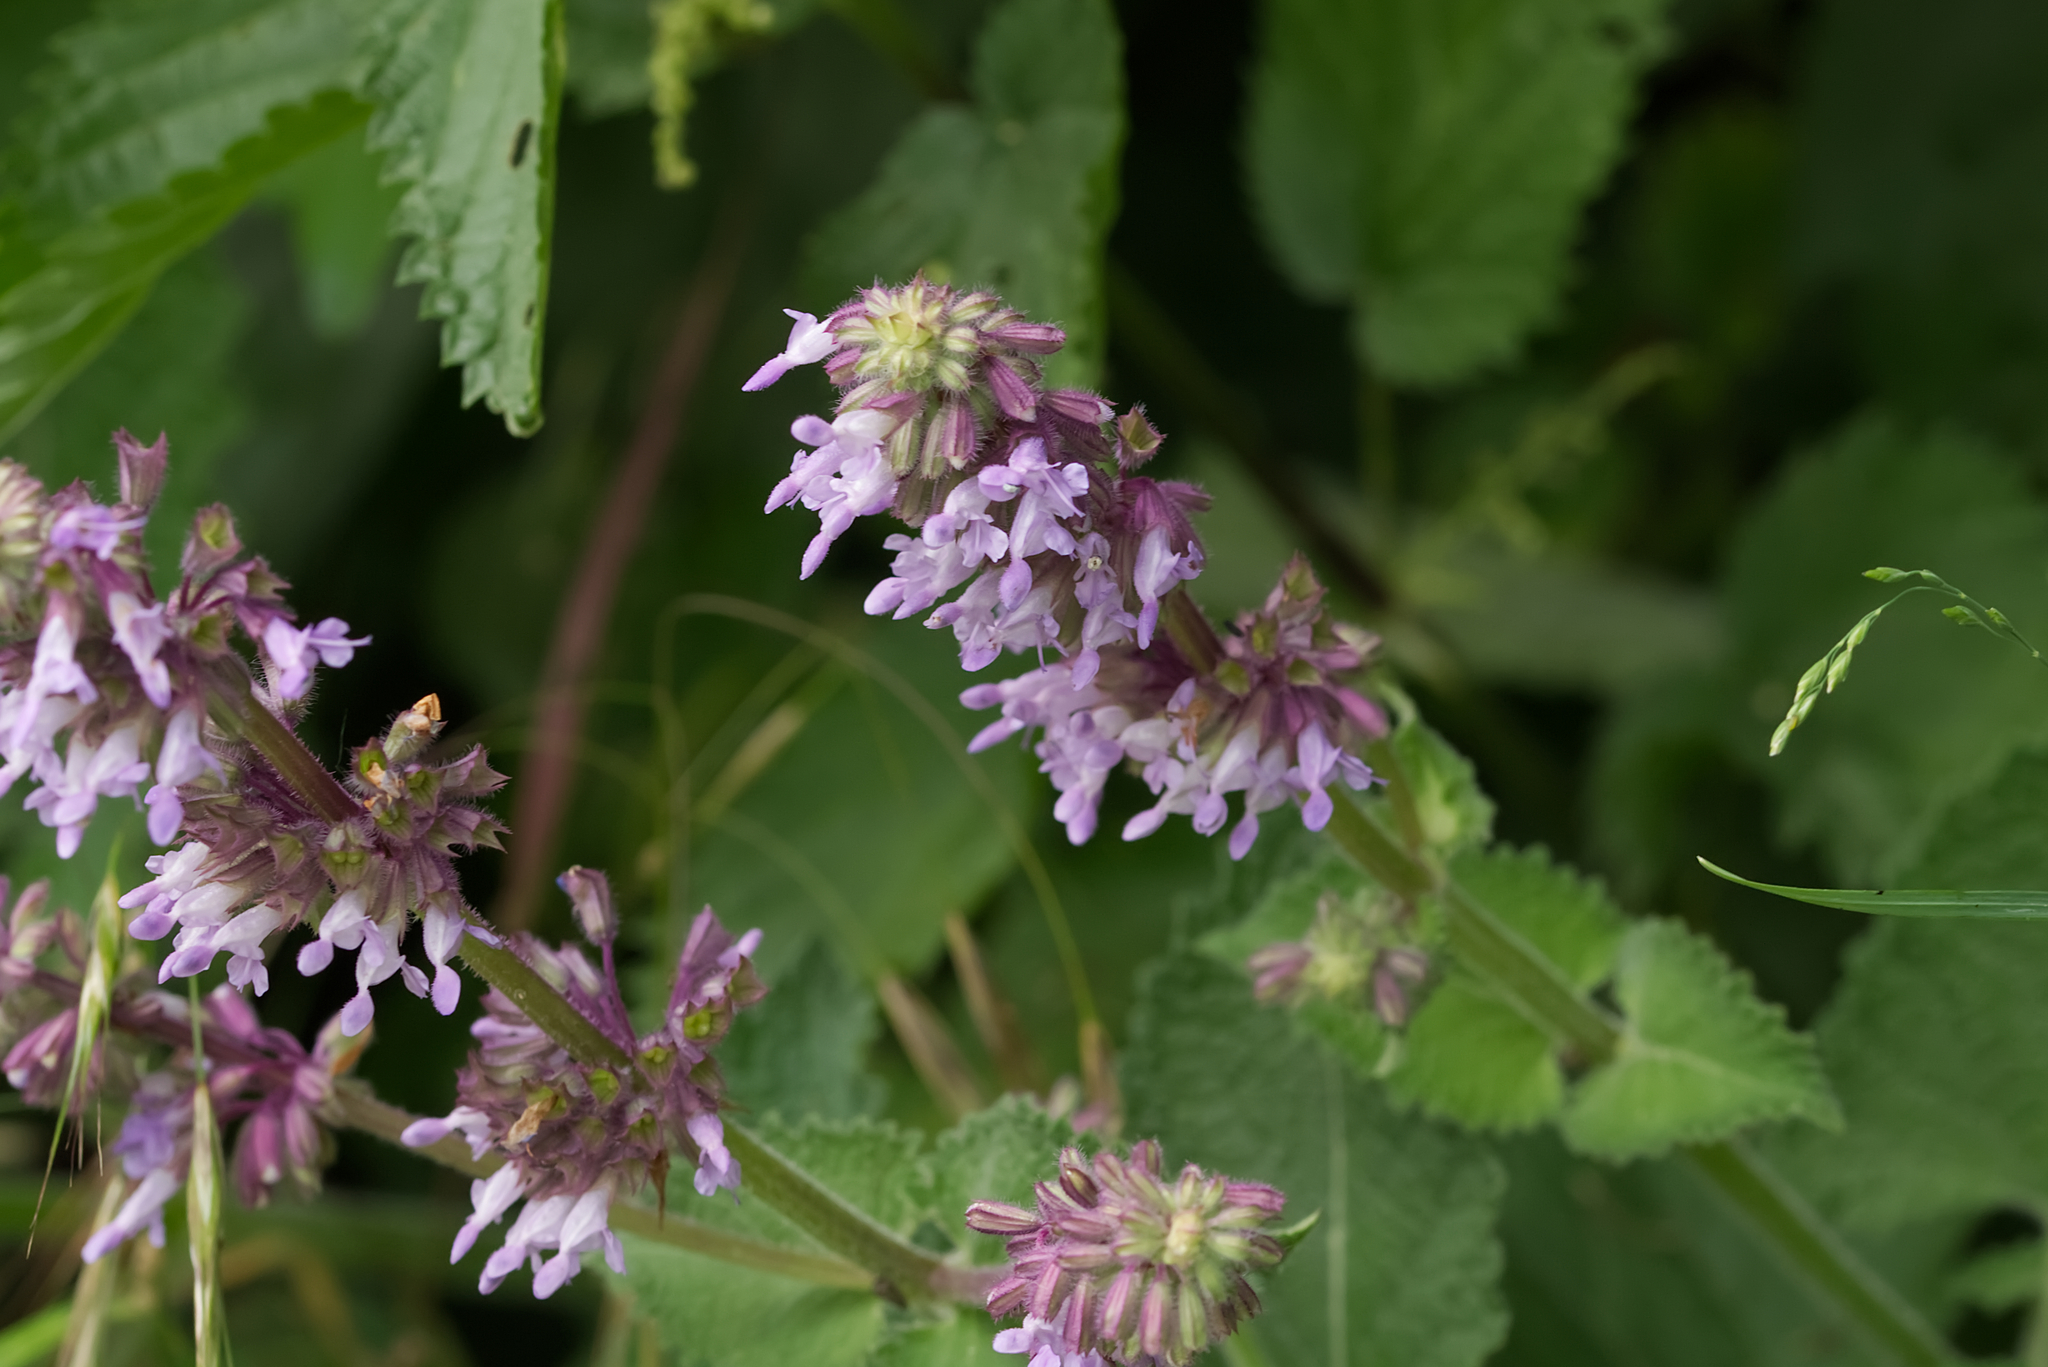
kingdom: Plantae
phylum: Tracheophyta
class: Magnoliopsida
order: Lamiales
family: Lamiaceae
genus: Salvia
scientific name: Salvia verticillata
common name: Whorled clary
